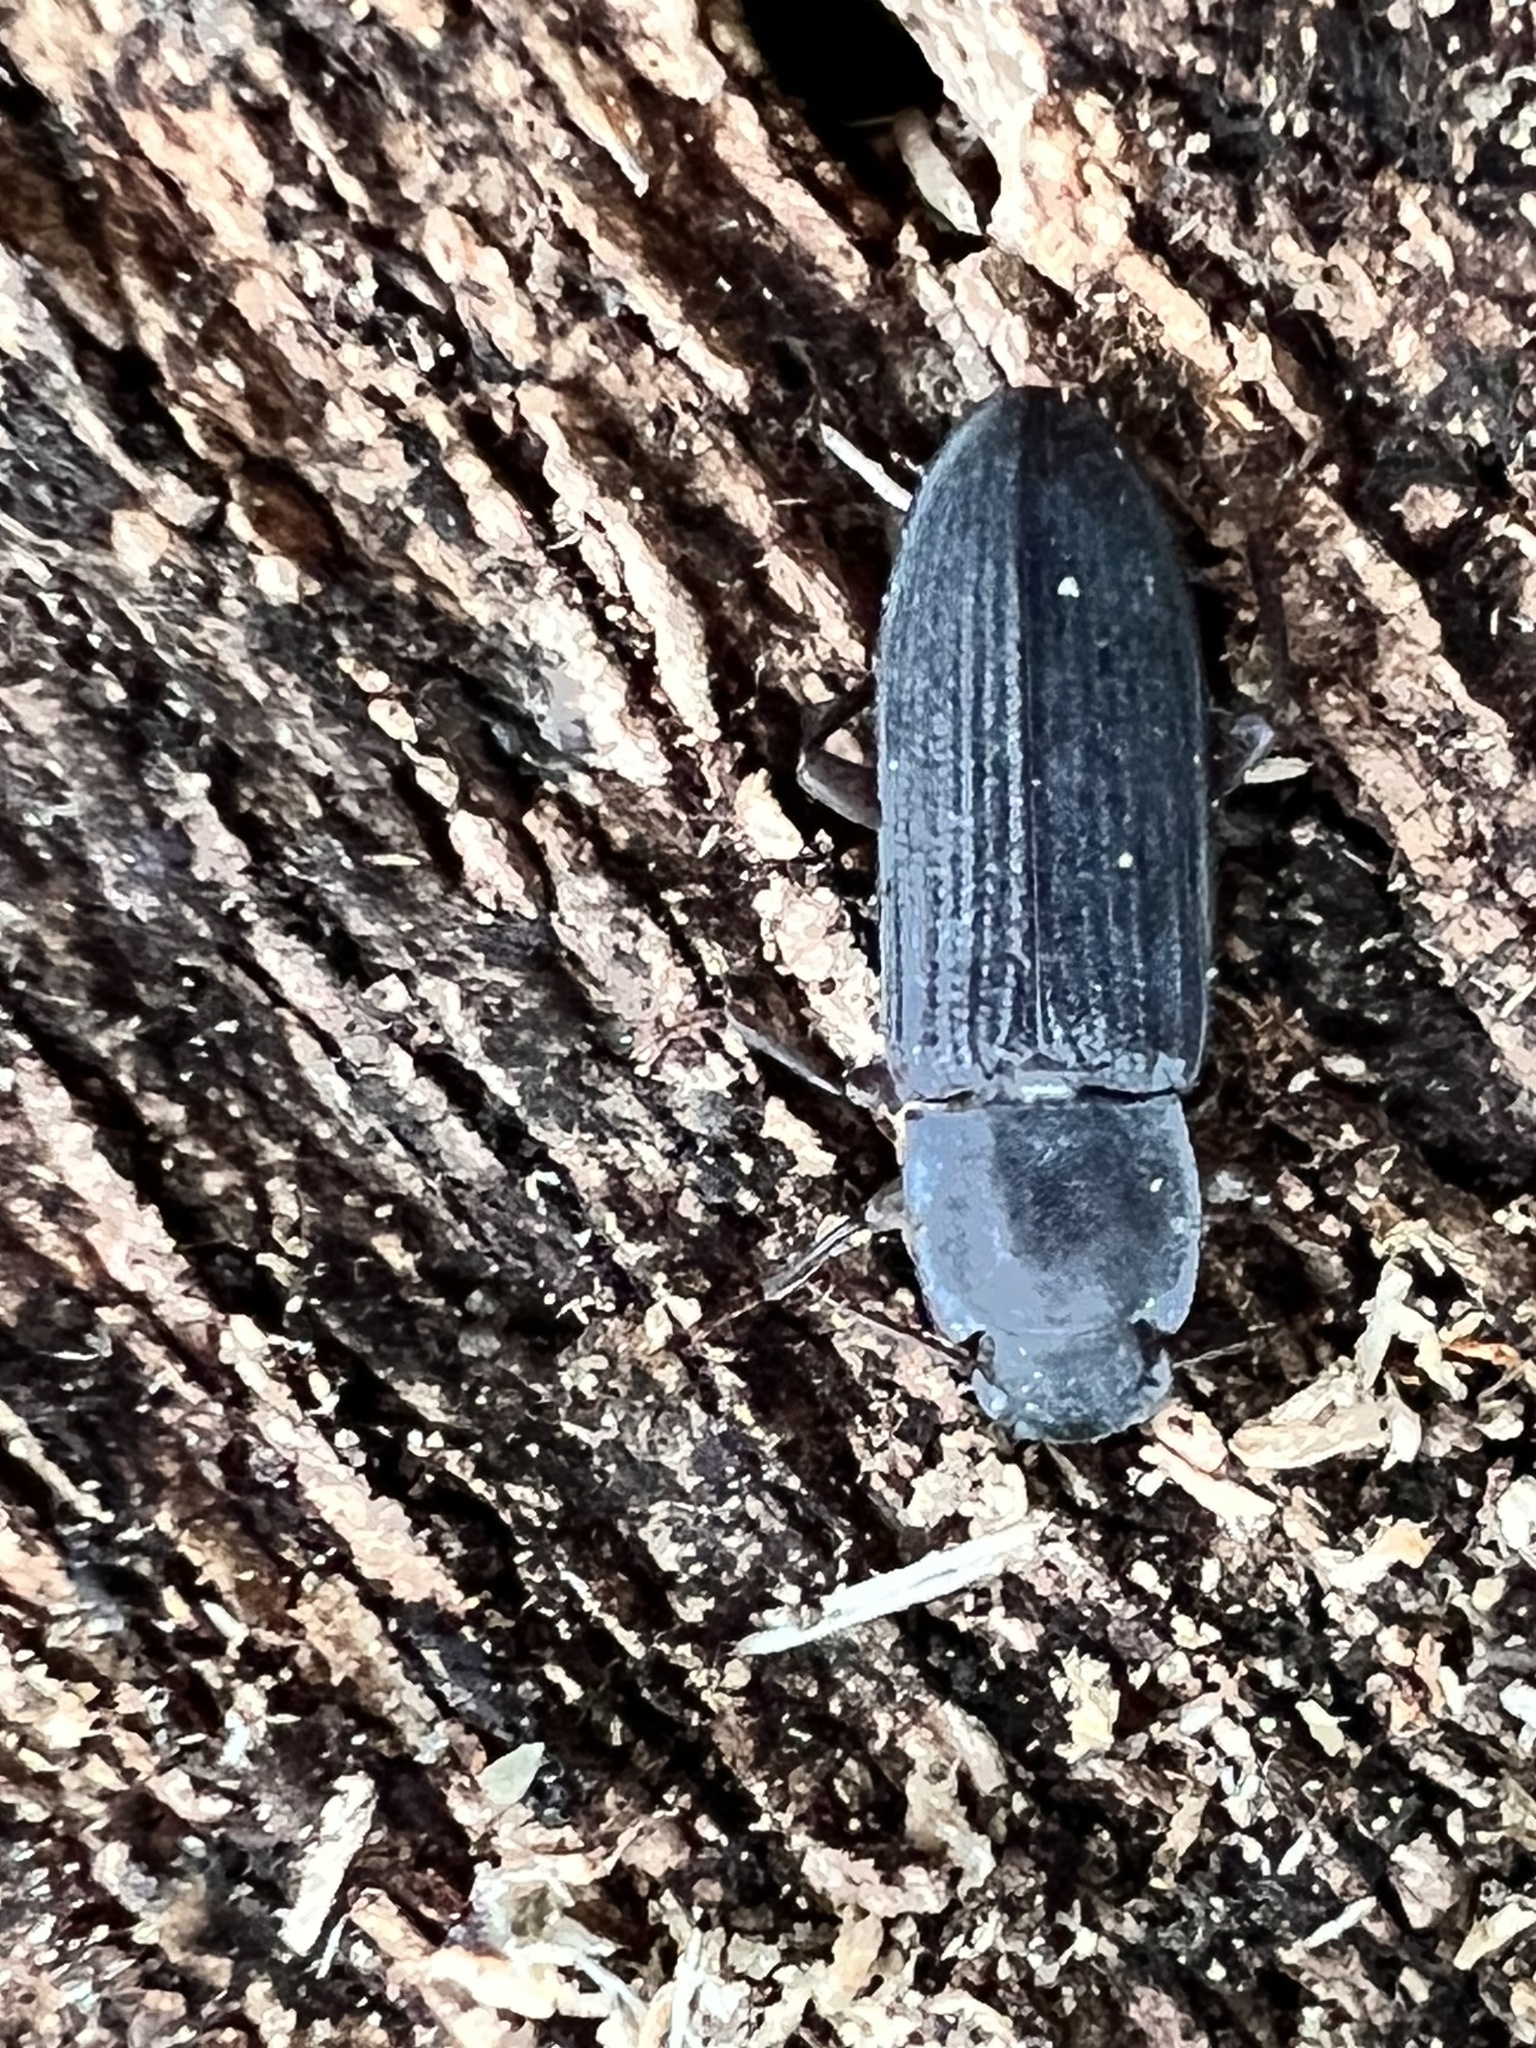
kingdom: Animalia
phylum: Arthropoda
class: Insecta
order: Coleoptera
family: Tenebrionidae
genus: Idiobates
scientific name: Idiobates castaneus
